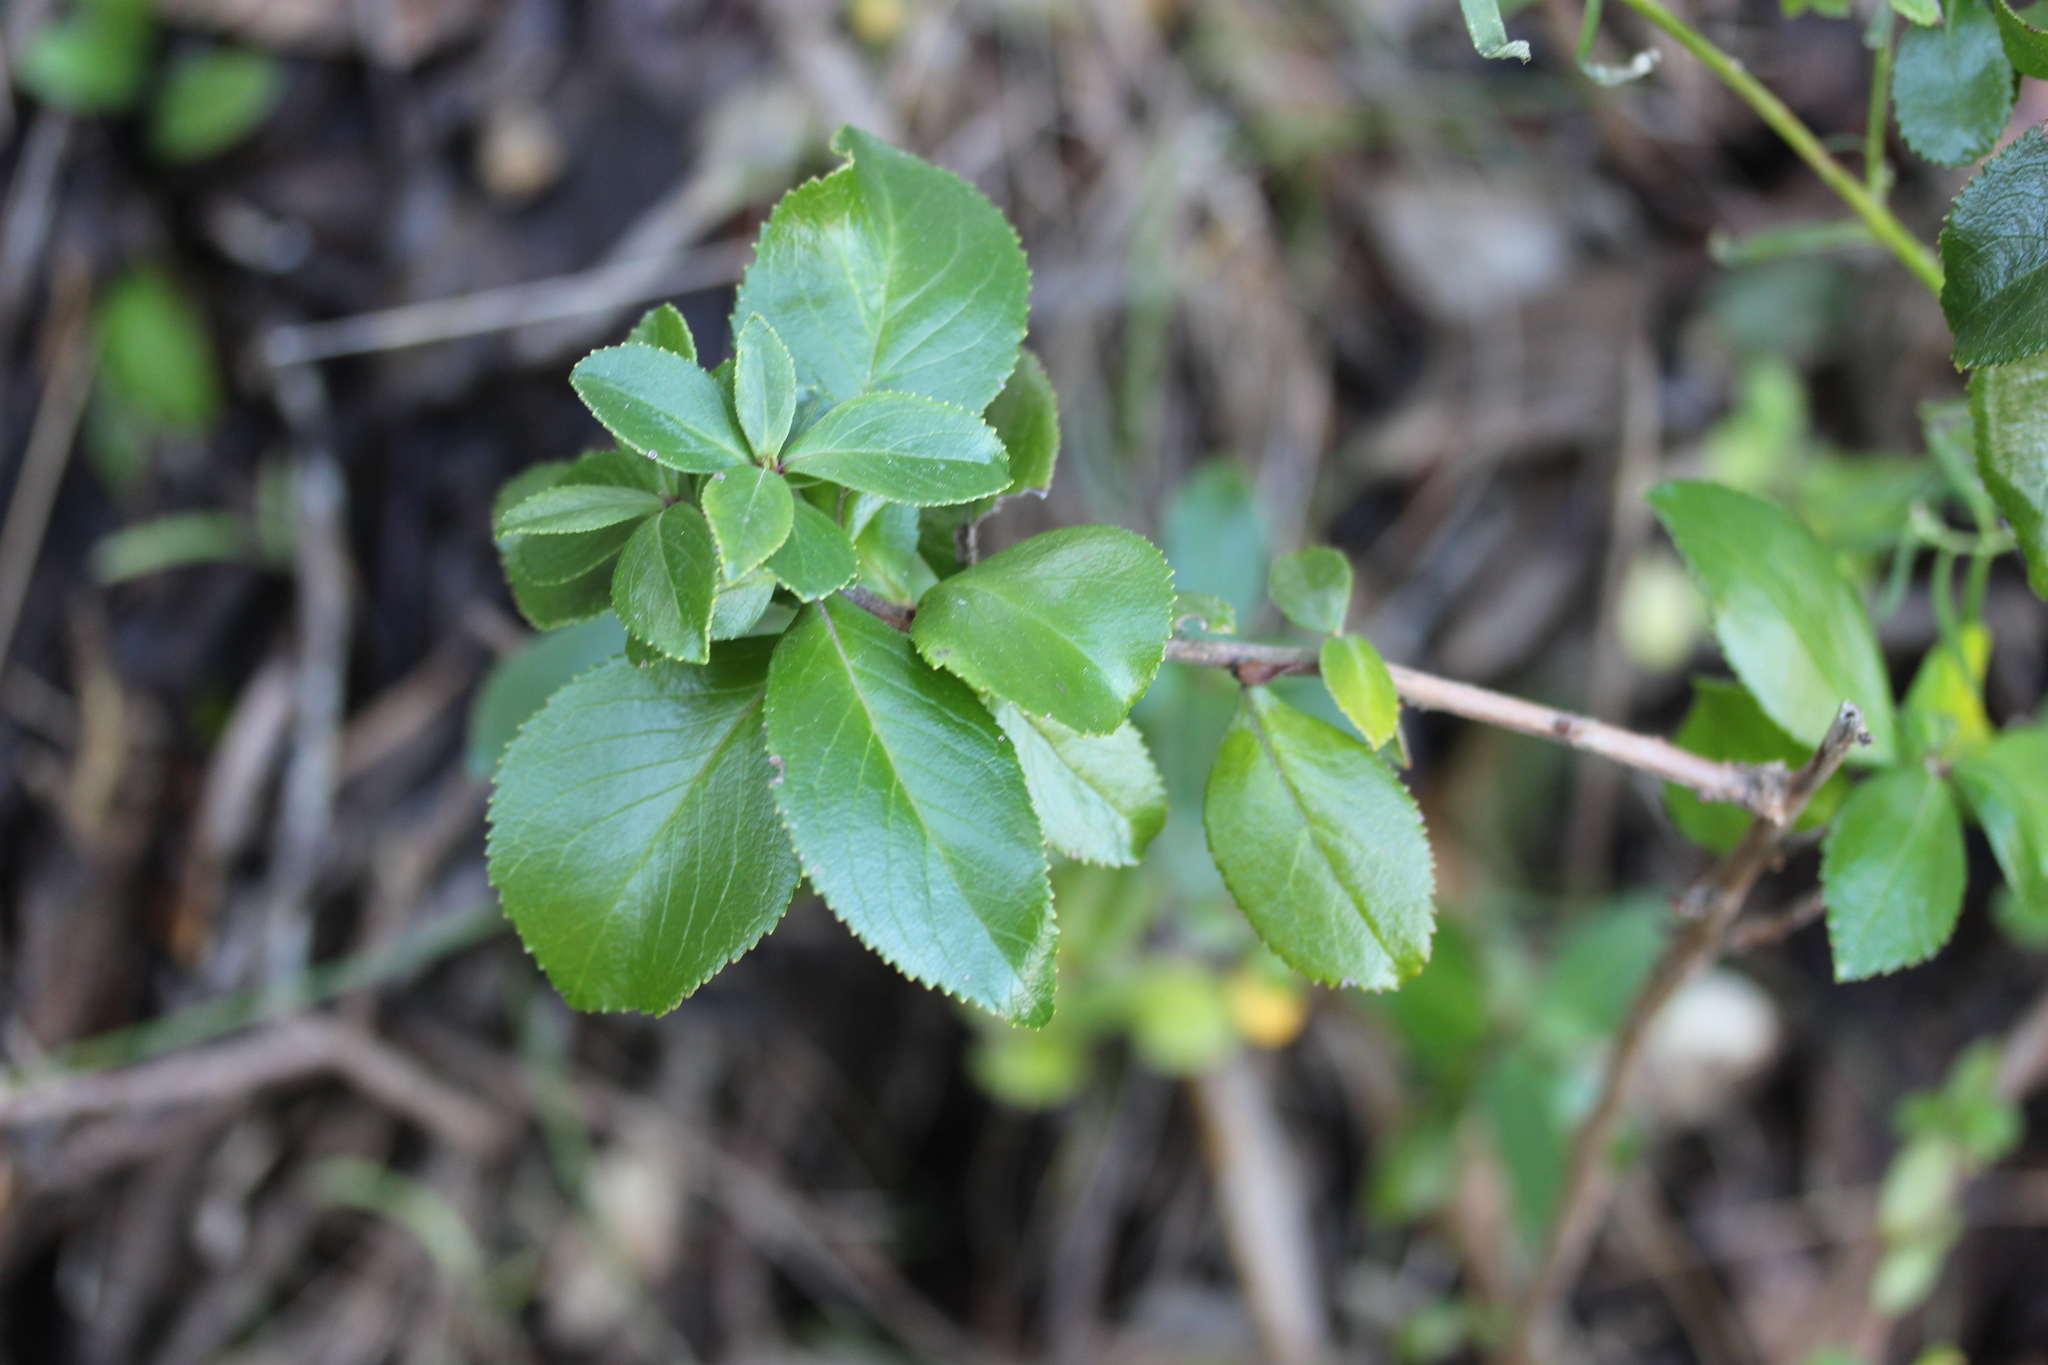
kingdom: Plantae
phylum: Tracheophyta
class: Magnoliopsida
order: Escalloniales
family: Escalloniaceae
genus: Escallonia
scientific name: Escallonia rubra
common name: Redclaws
